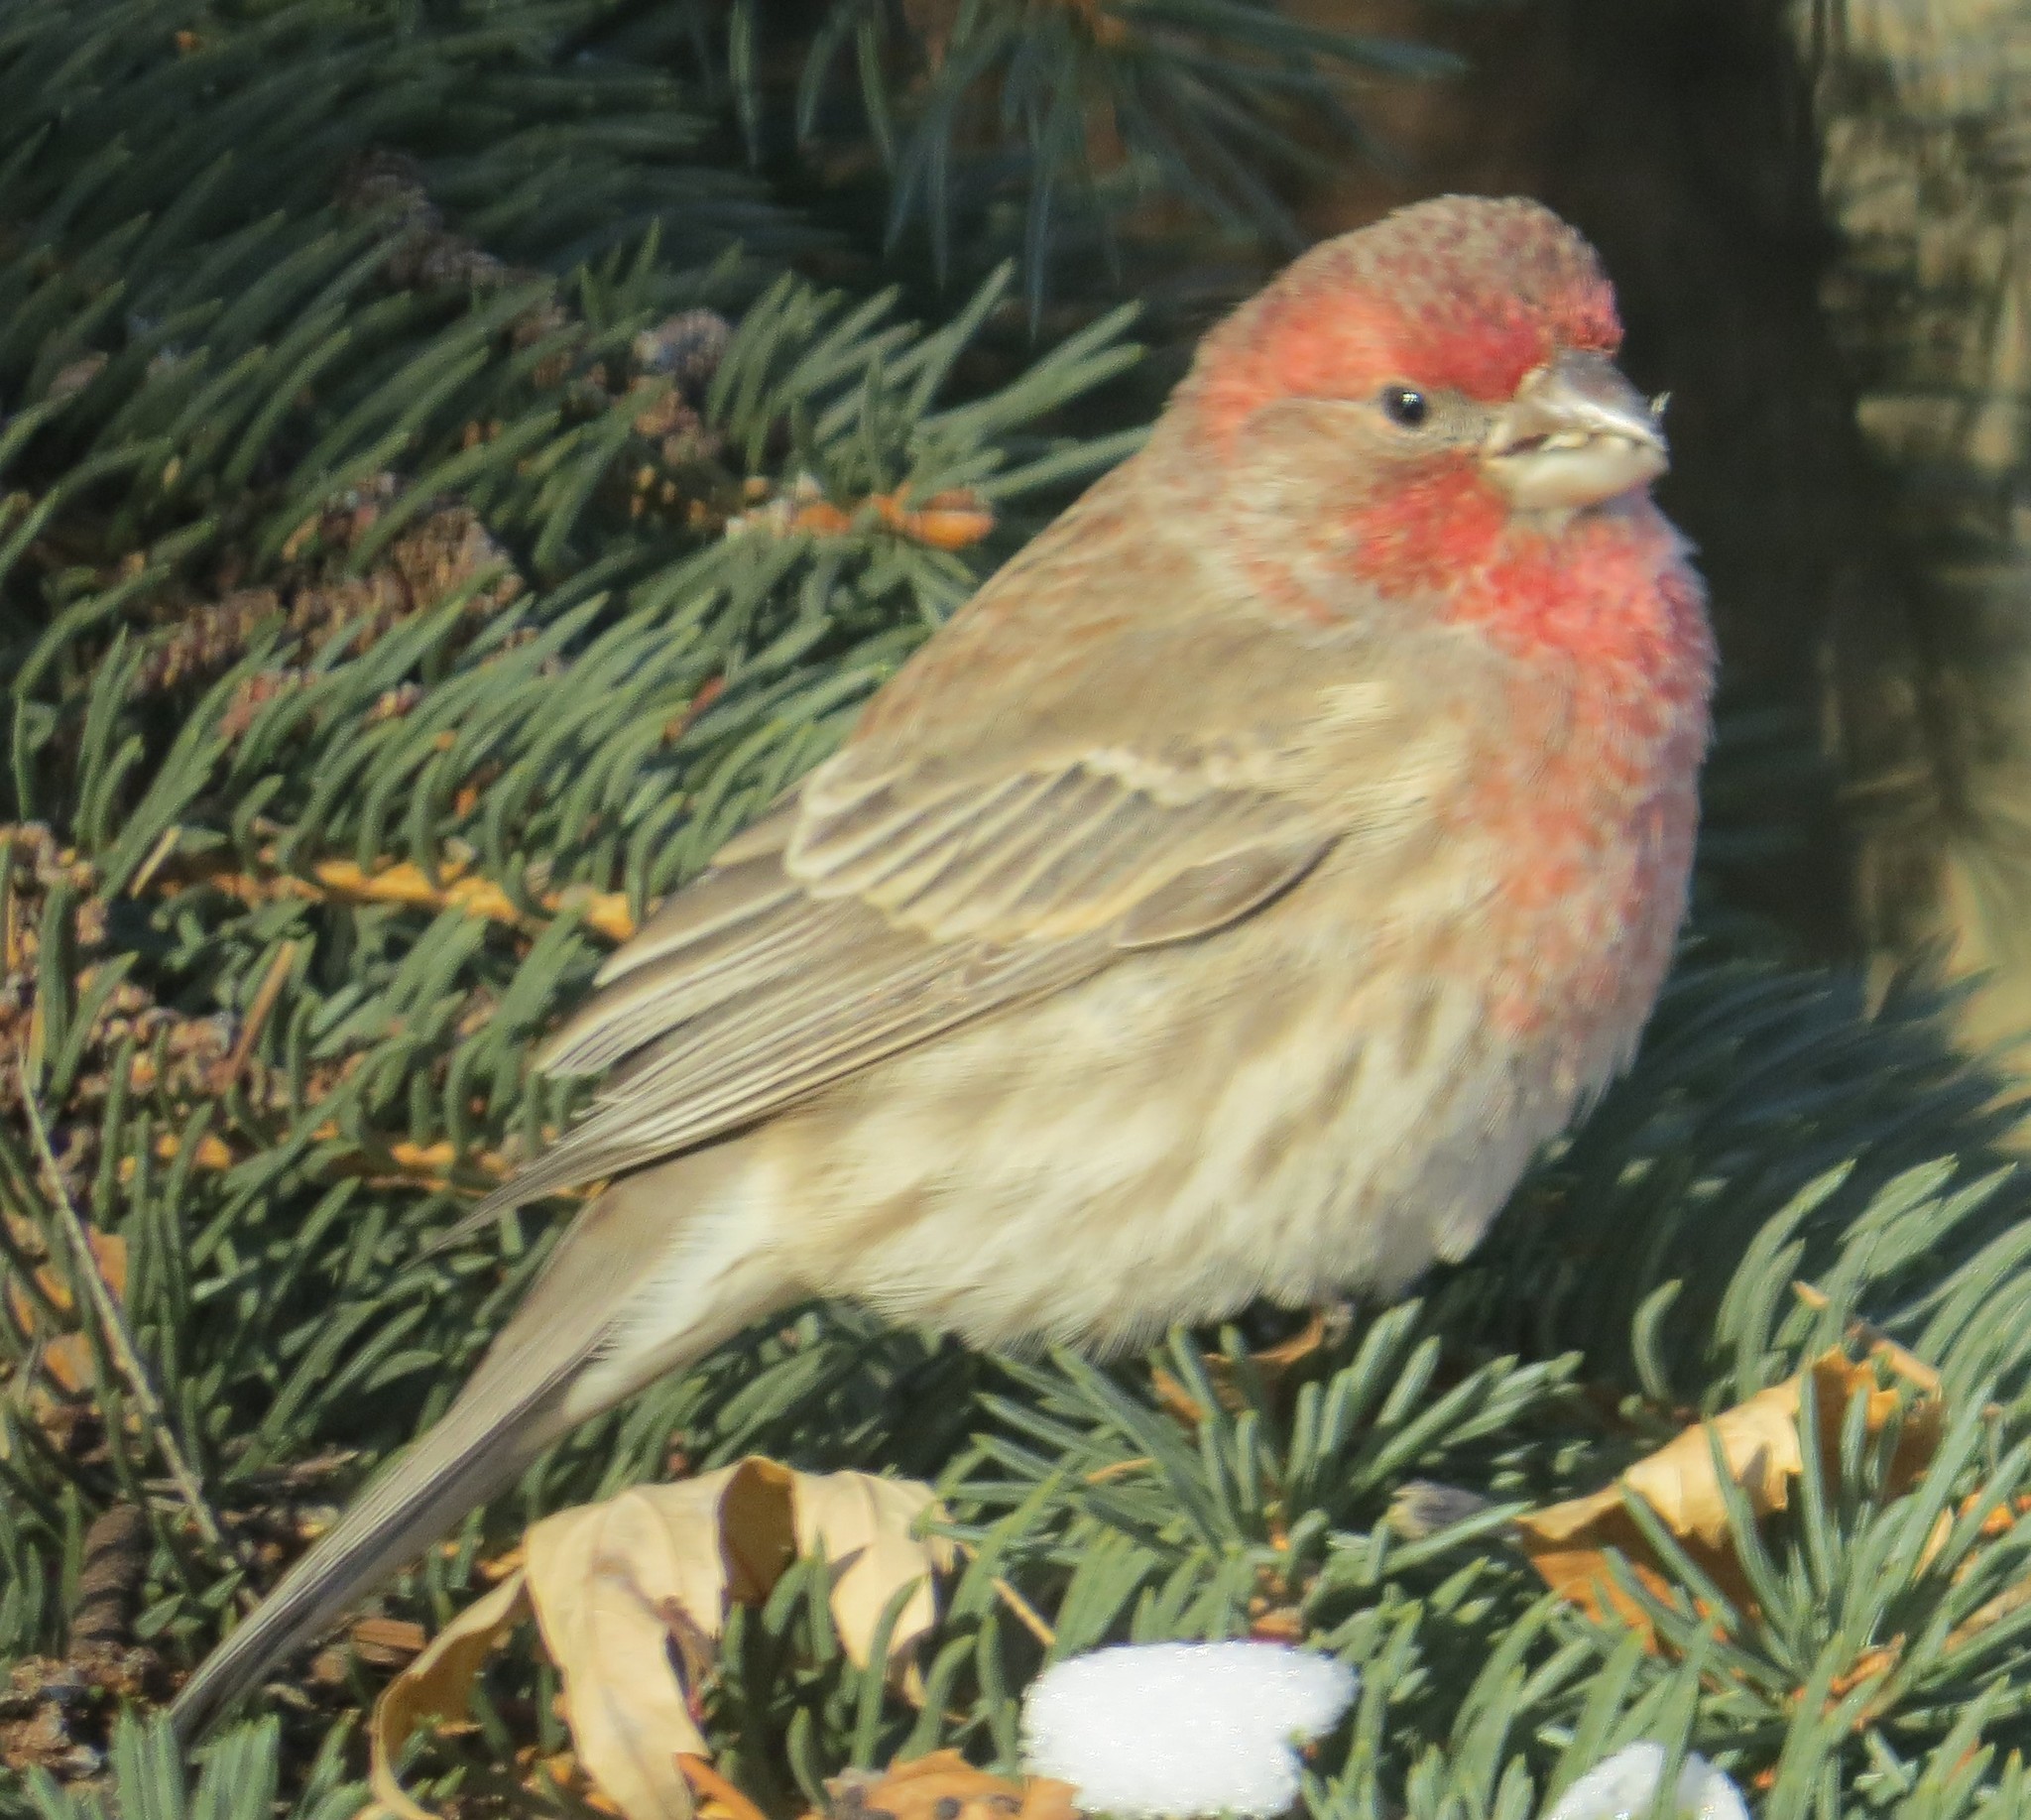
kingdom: Animalia
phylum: Chordata
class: Aves
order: Passeriformes
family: Fringillidae
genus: Haemorhous
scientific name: Haemorhous mexicanus
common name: House finch
